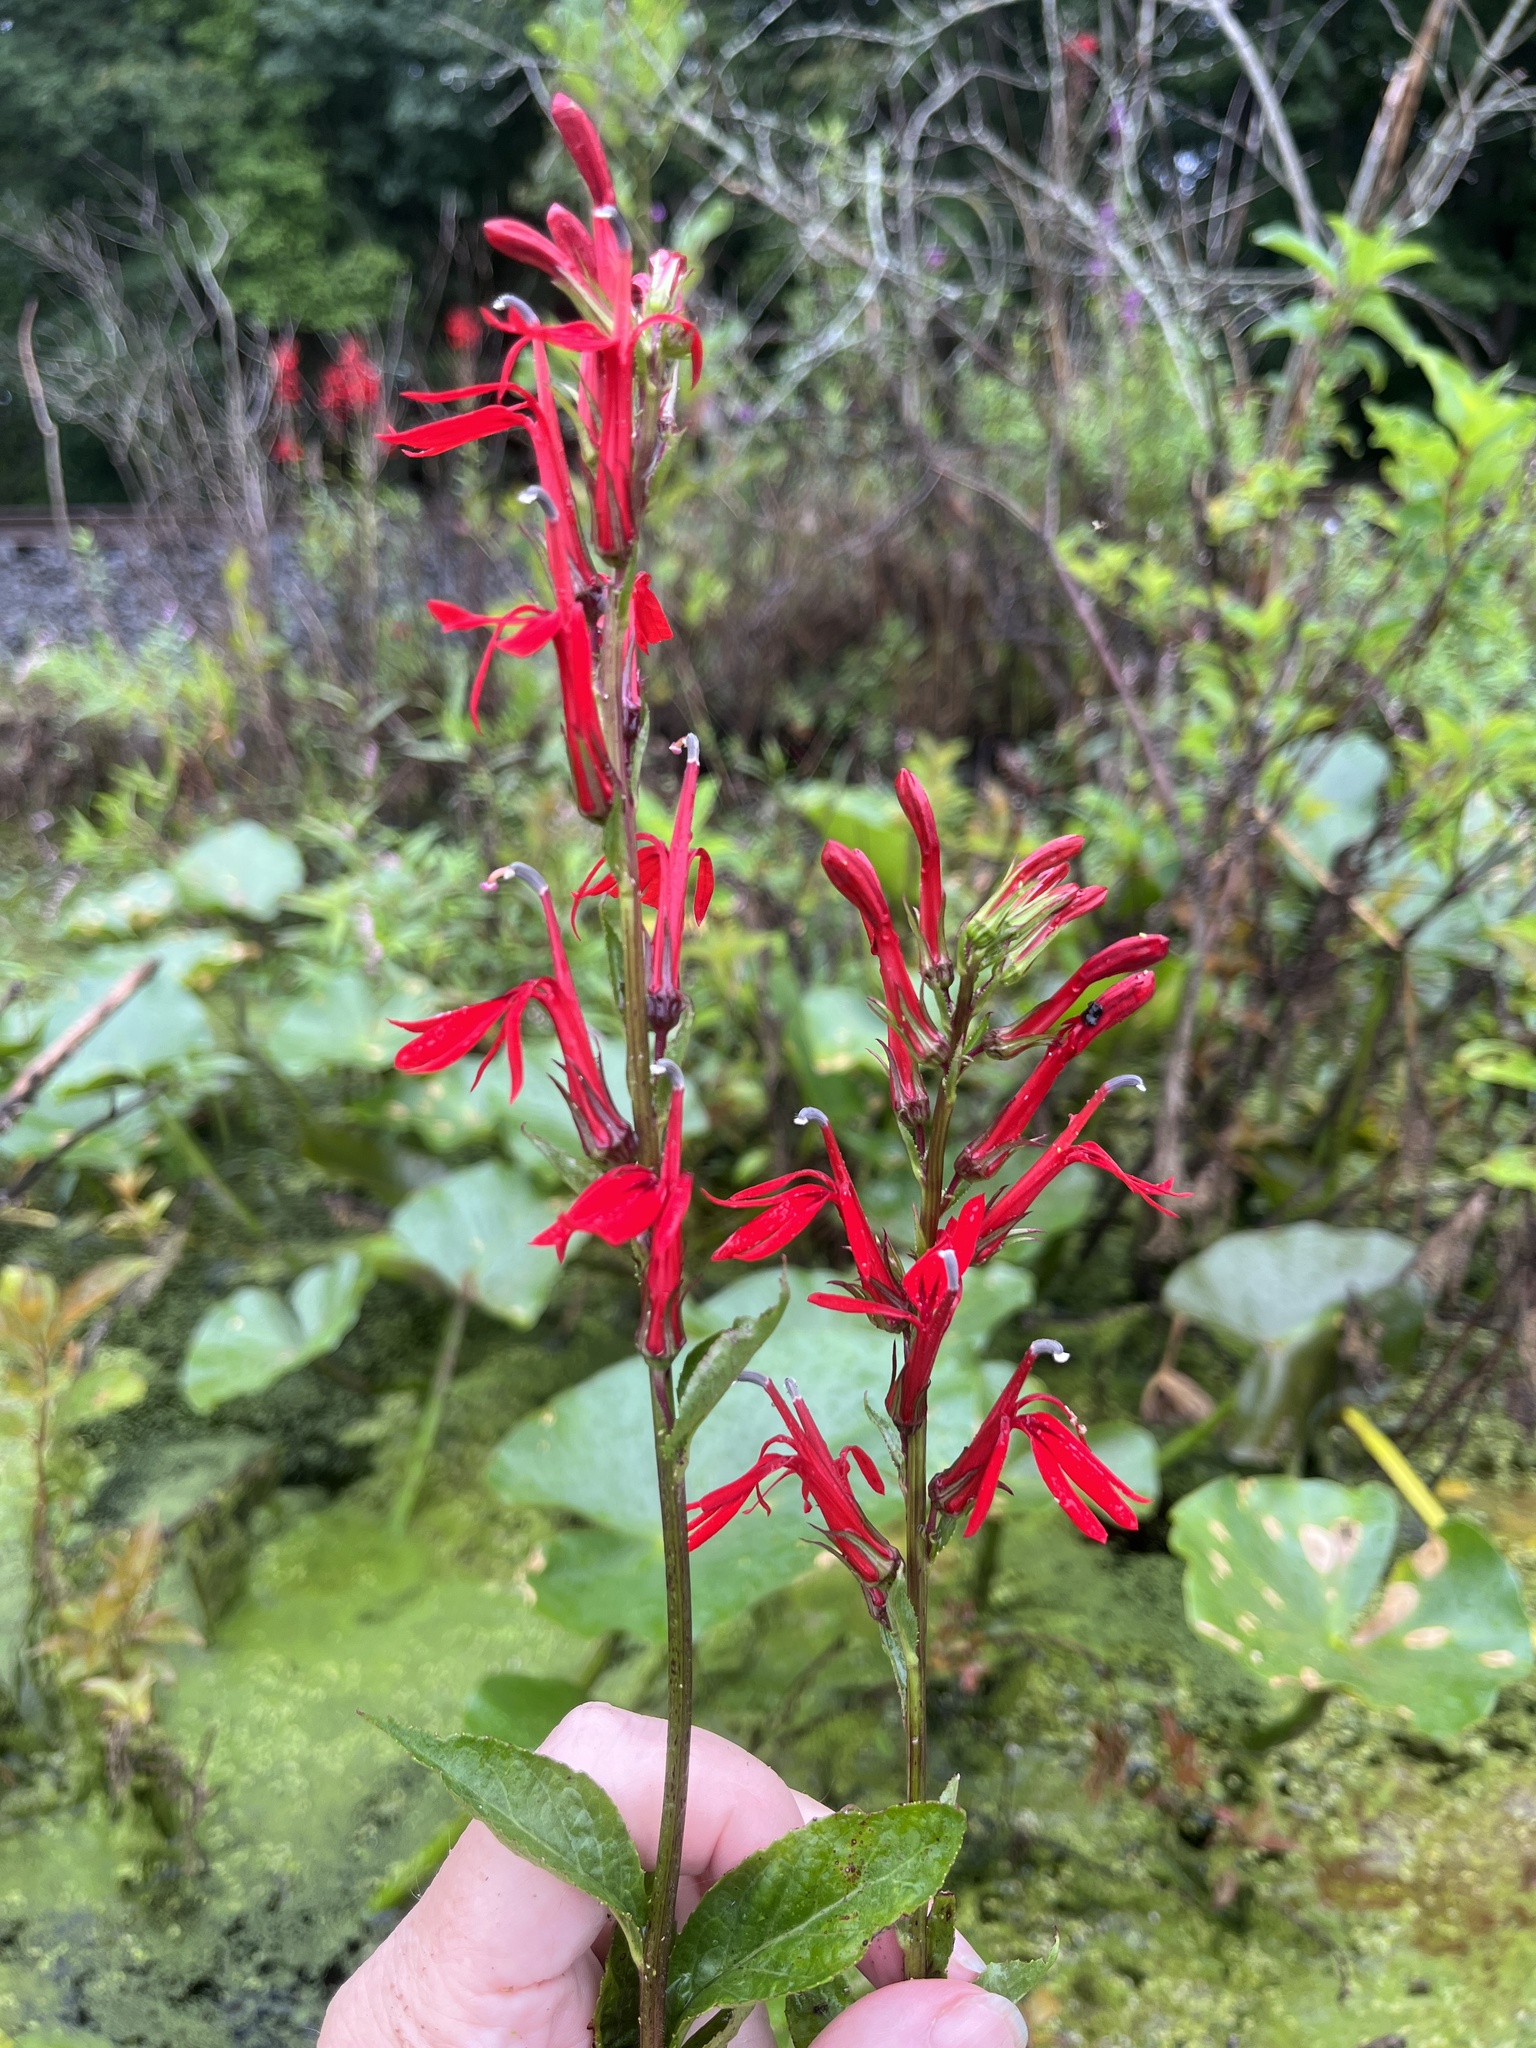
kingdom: Plantae
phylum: Tracheophyta
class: Magnoliopsida
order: Asterales
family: Campanulaceae
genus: Lobelia
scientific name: Lobelia cardinalis
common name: Cardinal flower
